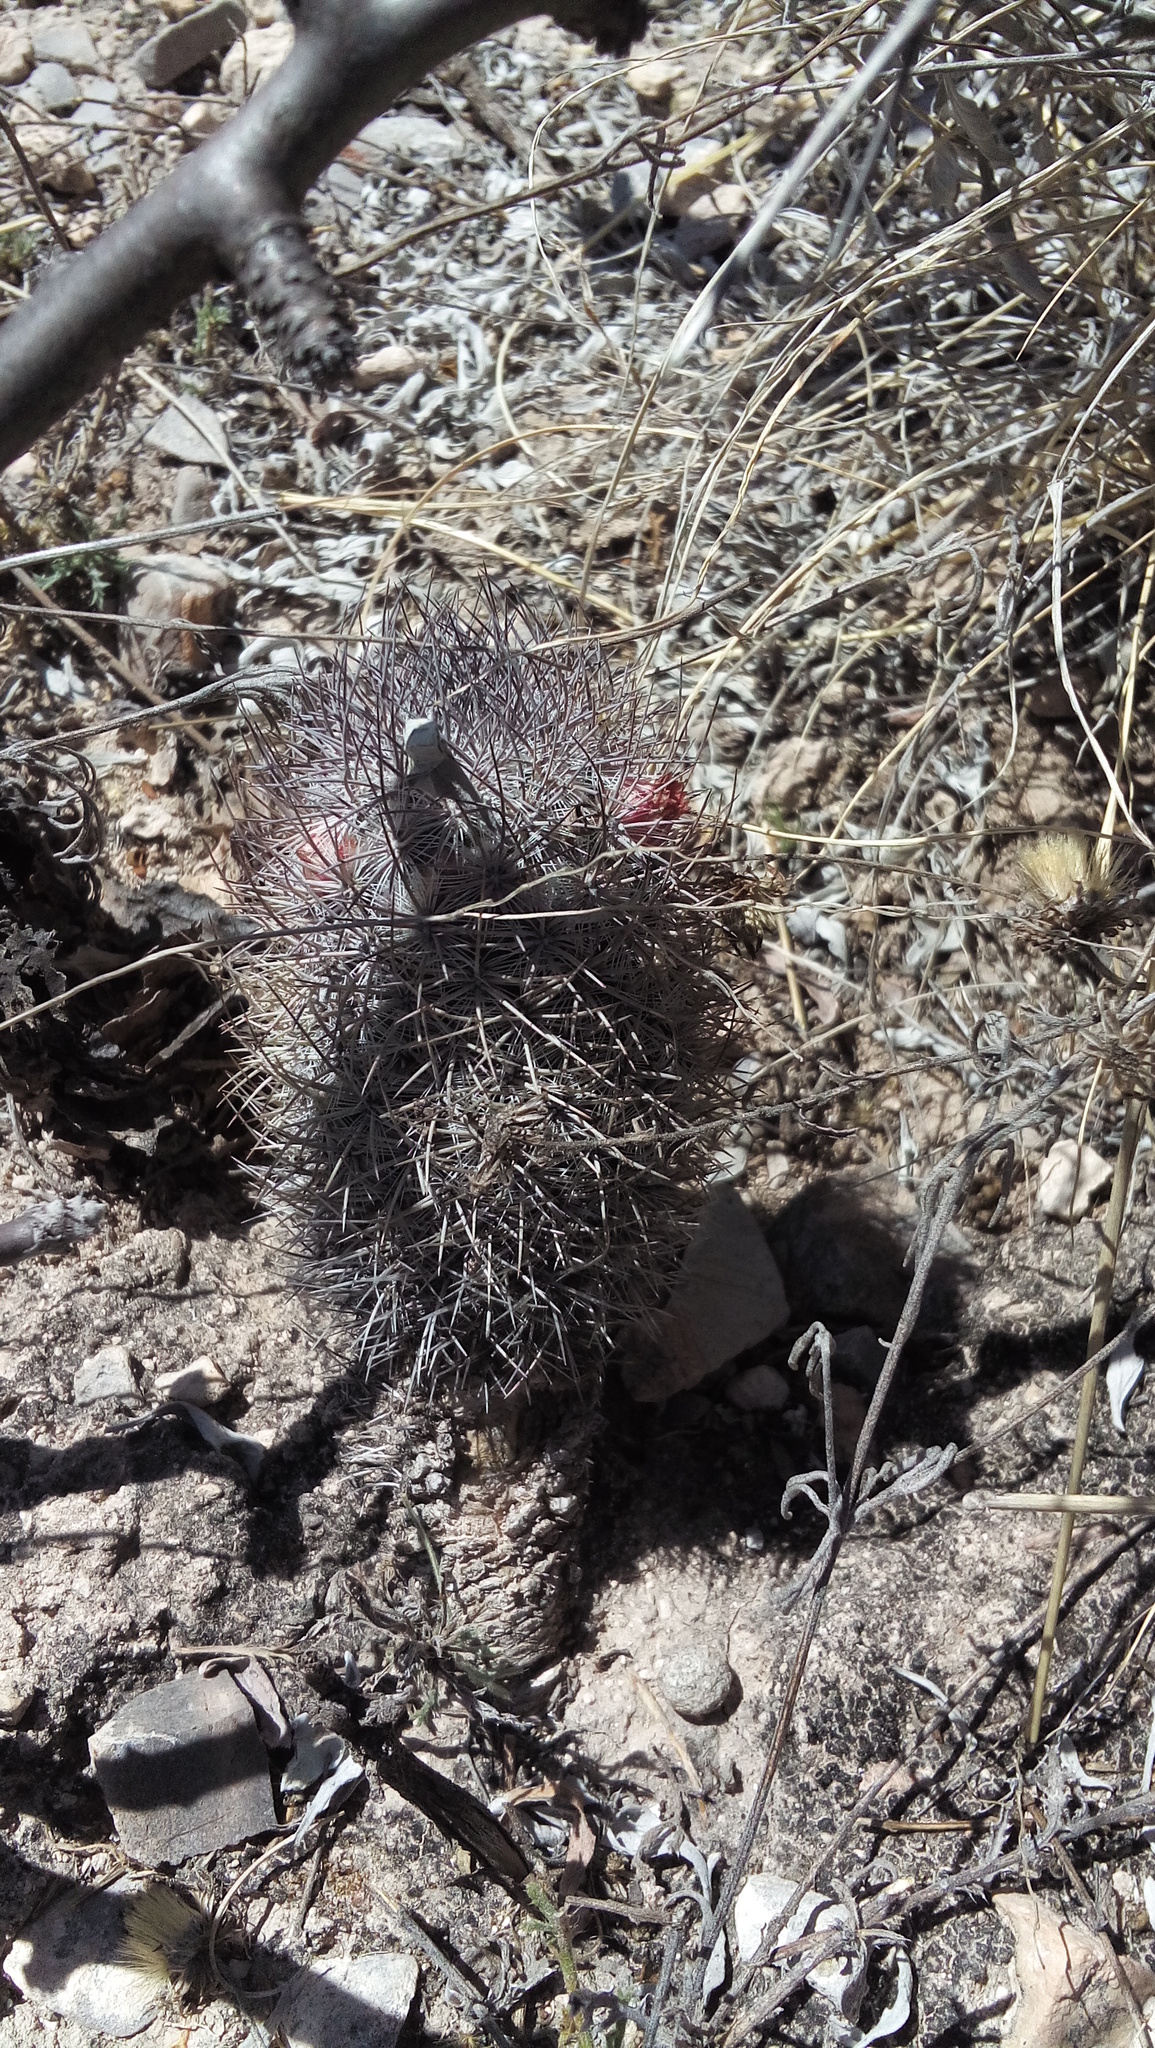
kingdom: Plantae
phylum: Tracheophyta
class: Magnoliopsida
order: Caryophyllales
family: Cactaceae
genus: Mammillaria
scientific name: Mammillaria pottsii
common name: Pott's nipple-cactus
